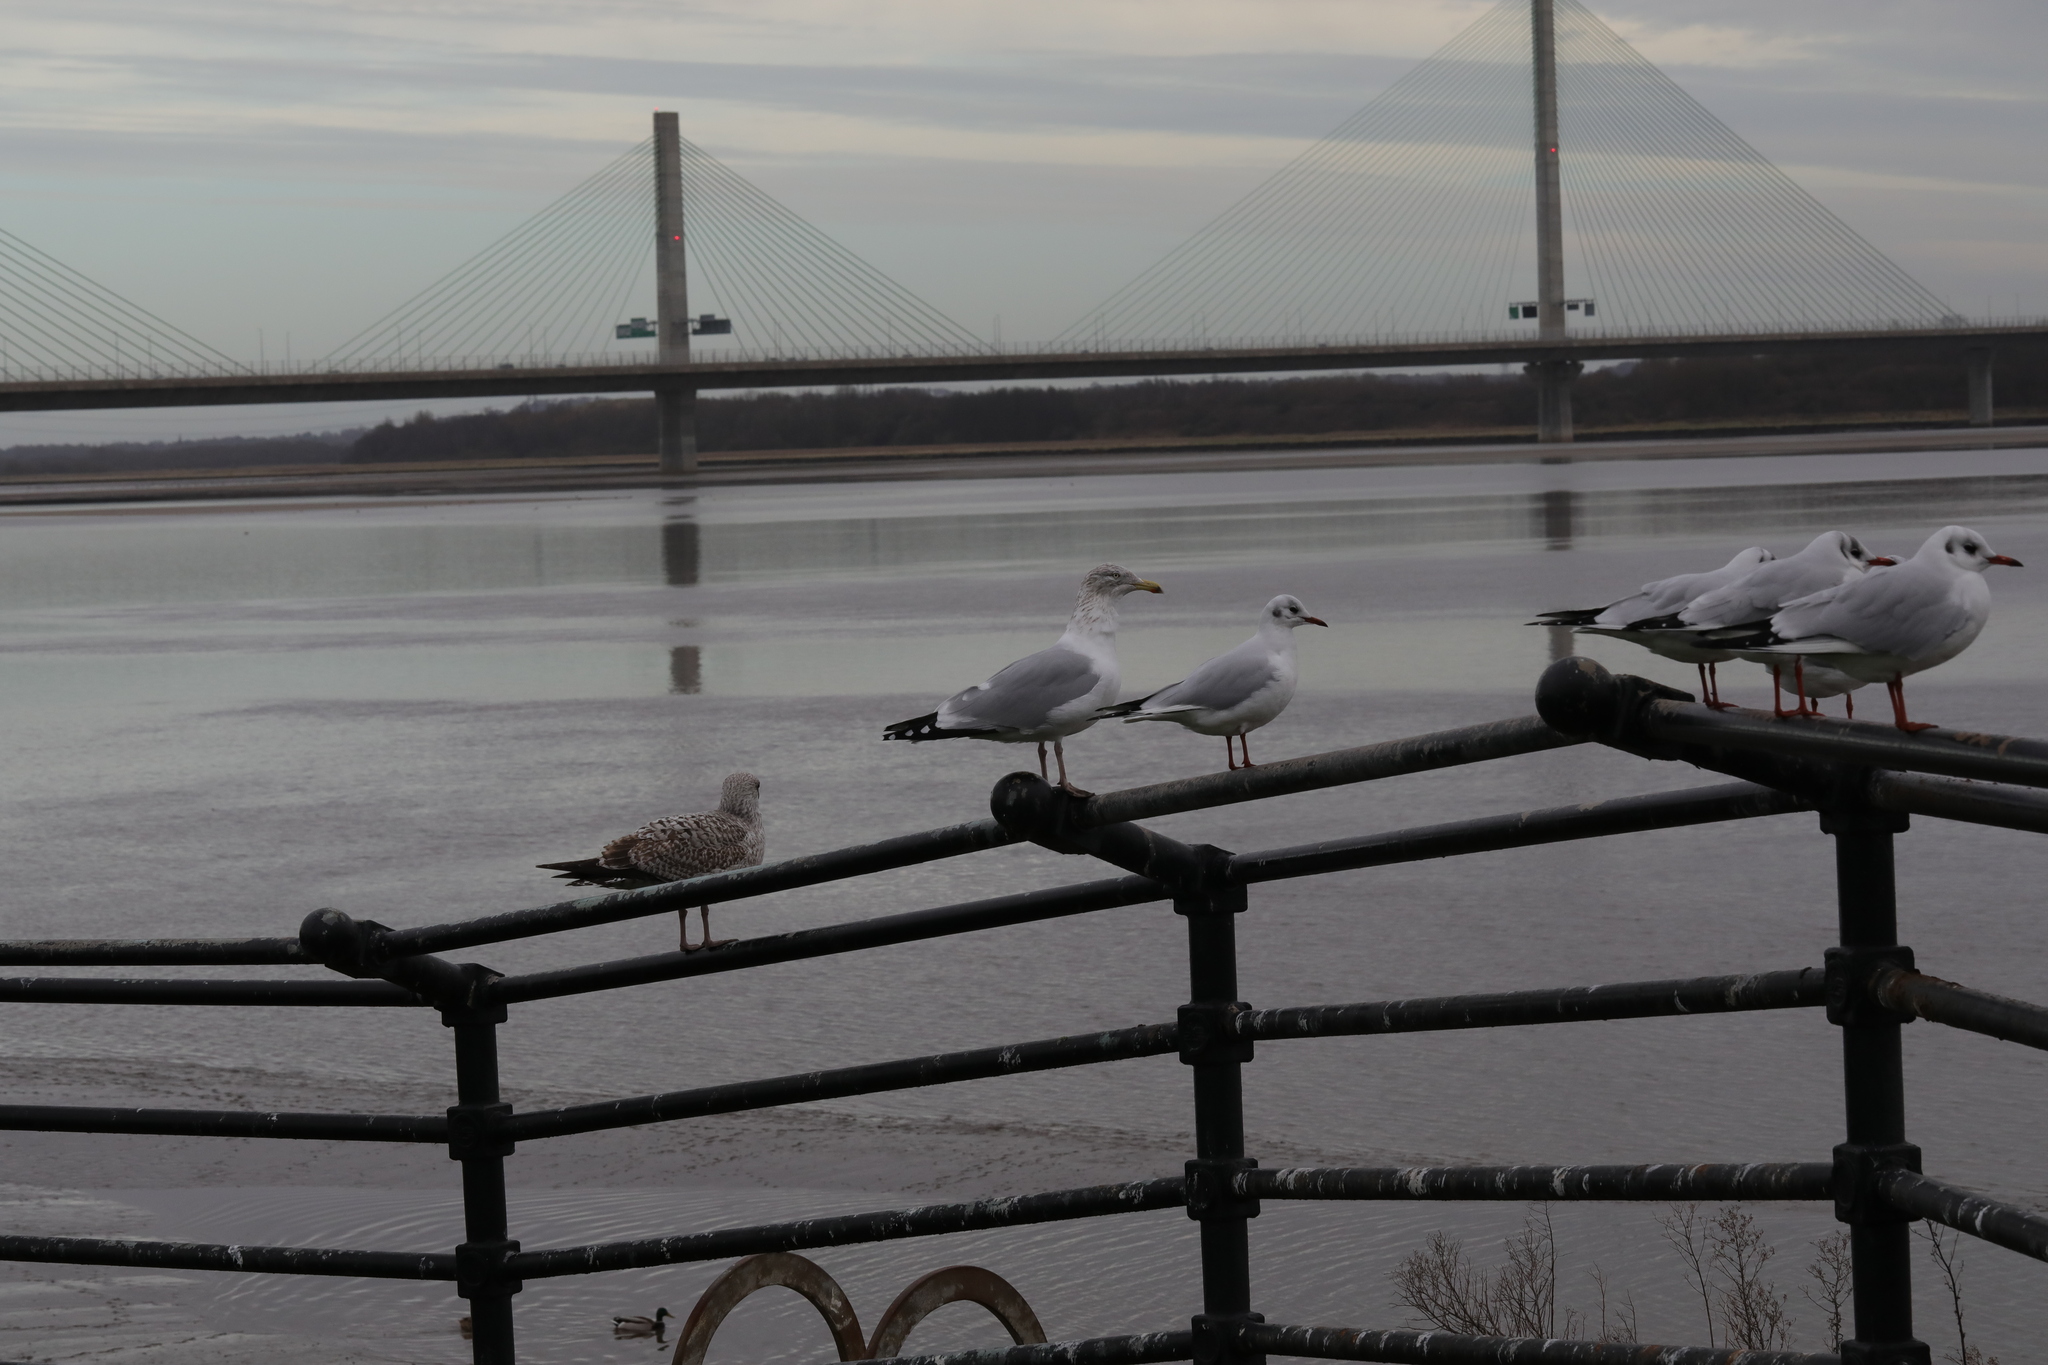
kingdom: Animalia
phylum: Chordata
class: Aves
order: Charadriiformes
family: Laridae
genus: Larus
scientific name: Larus argentatus
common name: Herring gull
